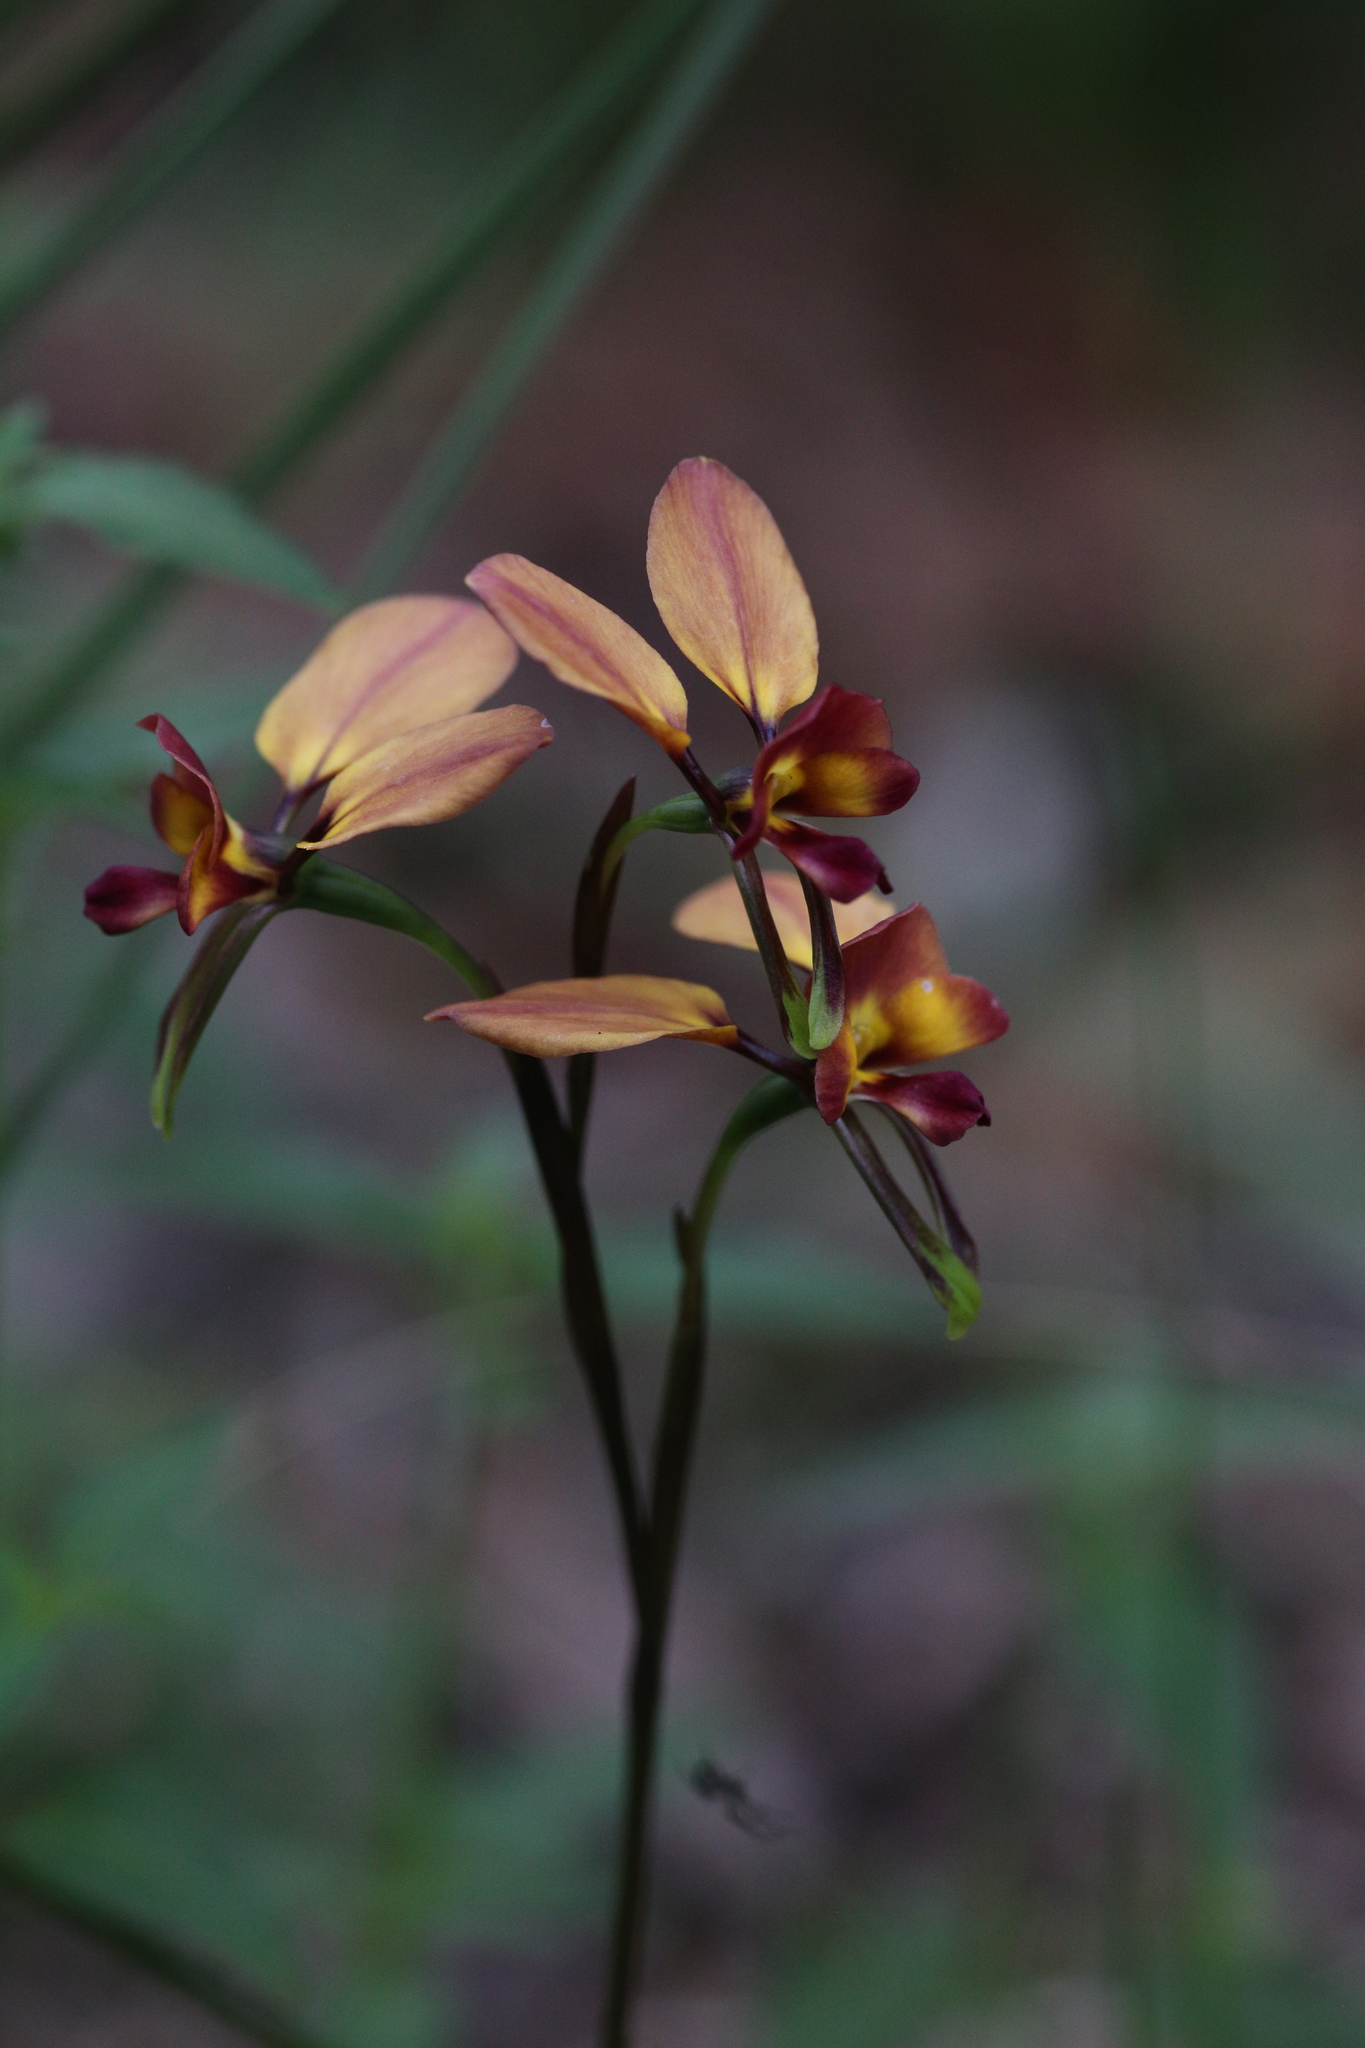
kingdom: Plantae
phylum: Tracheophyta
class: Liliopsida
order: Asparagales
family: Orchidaceae
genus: Diuris
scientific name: Diuris jonesii
